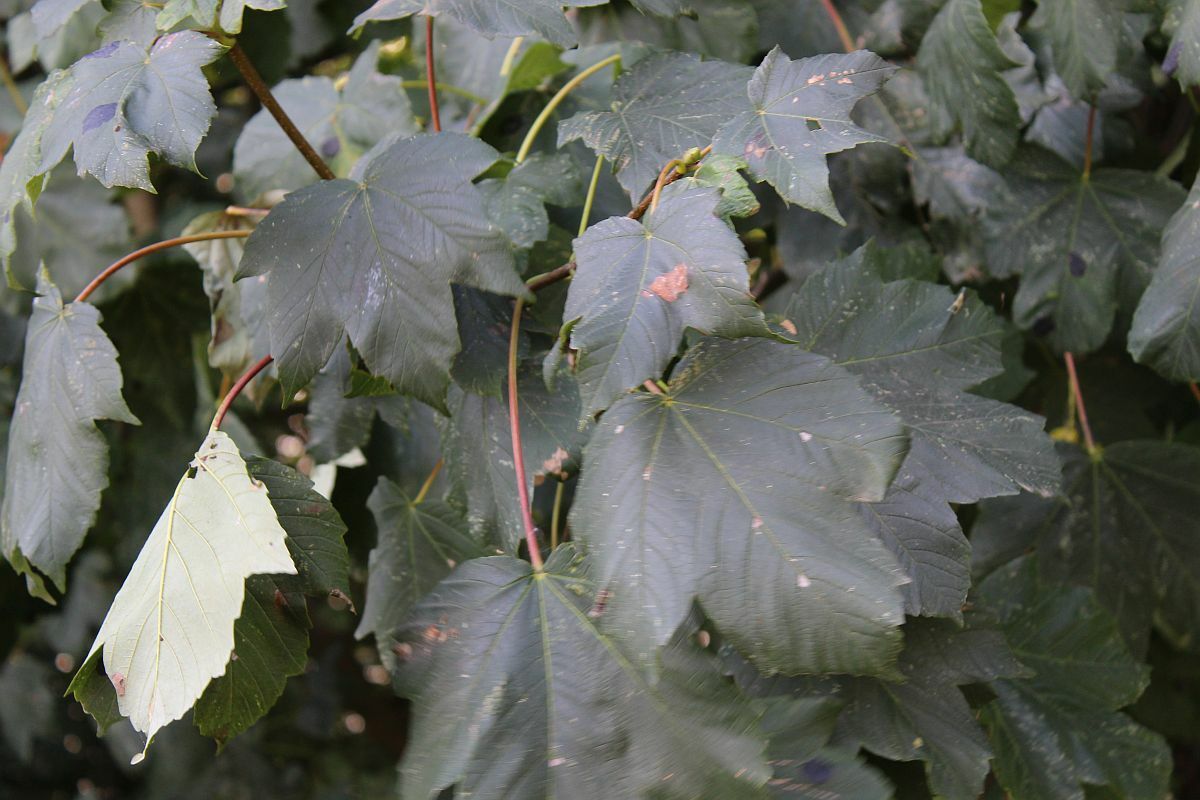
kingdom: Plantae
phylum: Tracheophyta
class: Magnoliopsida
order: Sapindales
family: Sapindaceae
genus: Acer
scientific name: Acer pseudoplatanus
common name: Sycamore
